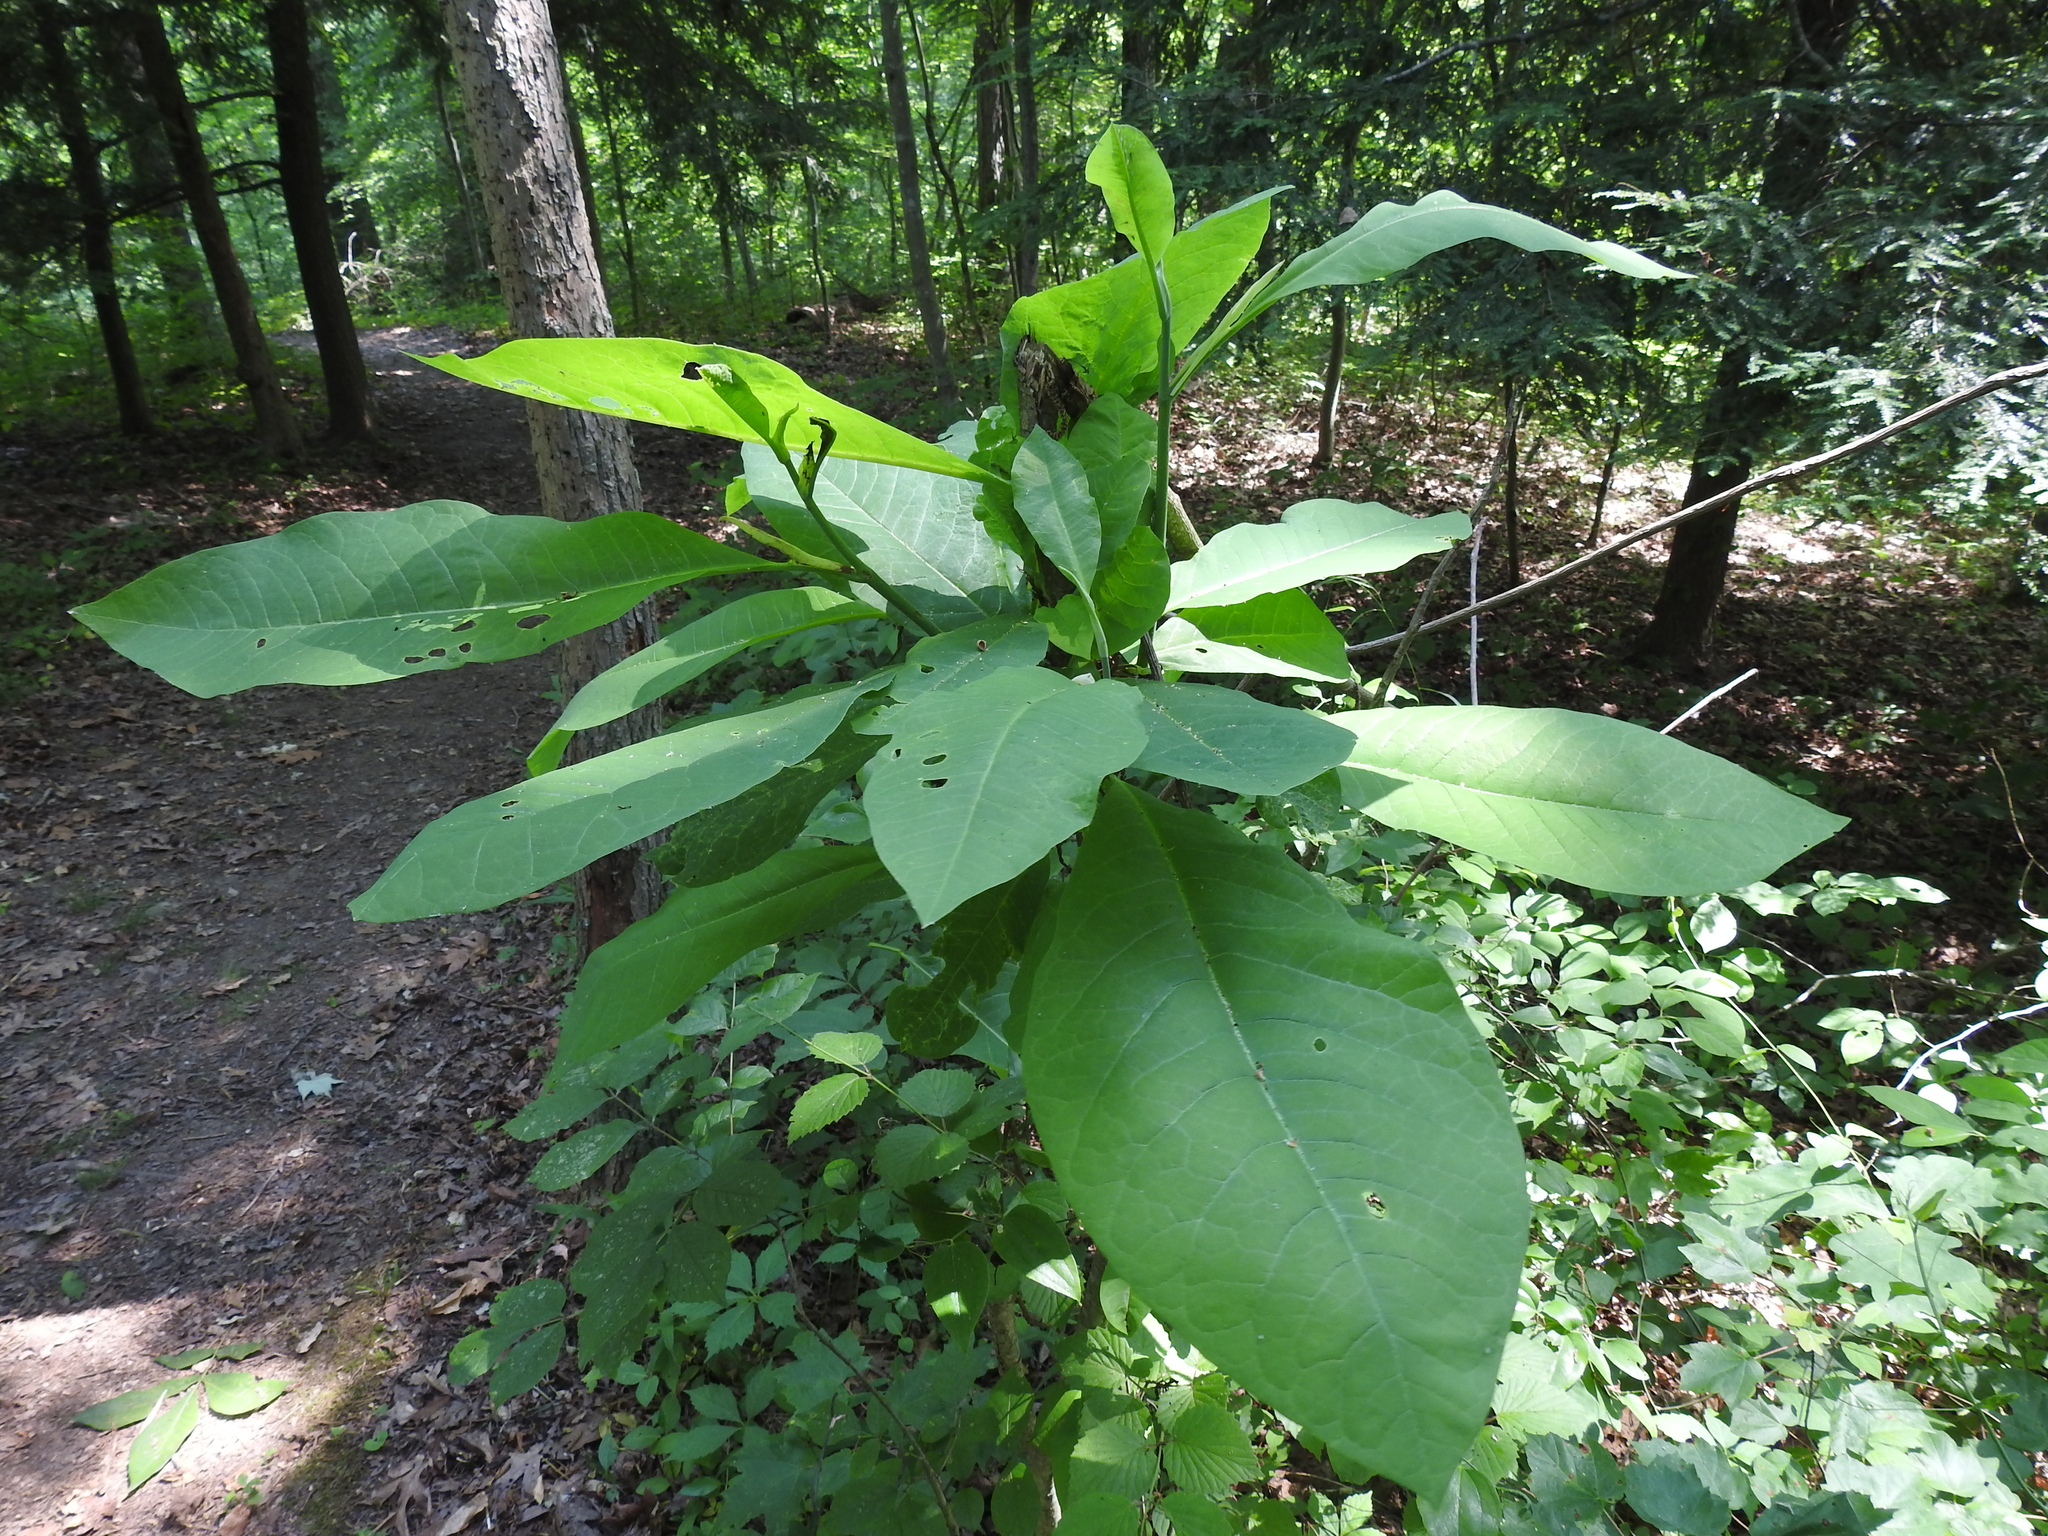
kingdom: Plantae
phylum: Tracheophyta
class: Magnoliopsida
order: Magnoliales
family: Magnoliaceae
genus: Magnolia
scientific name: Magnolia tripetala
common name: Umbrella magnolia
